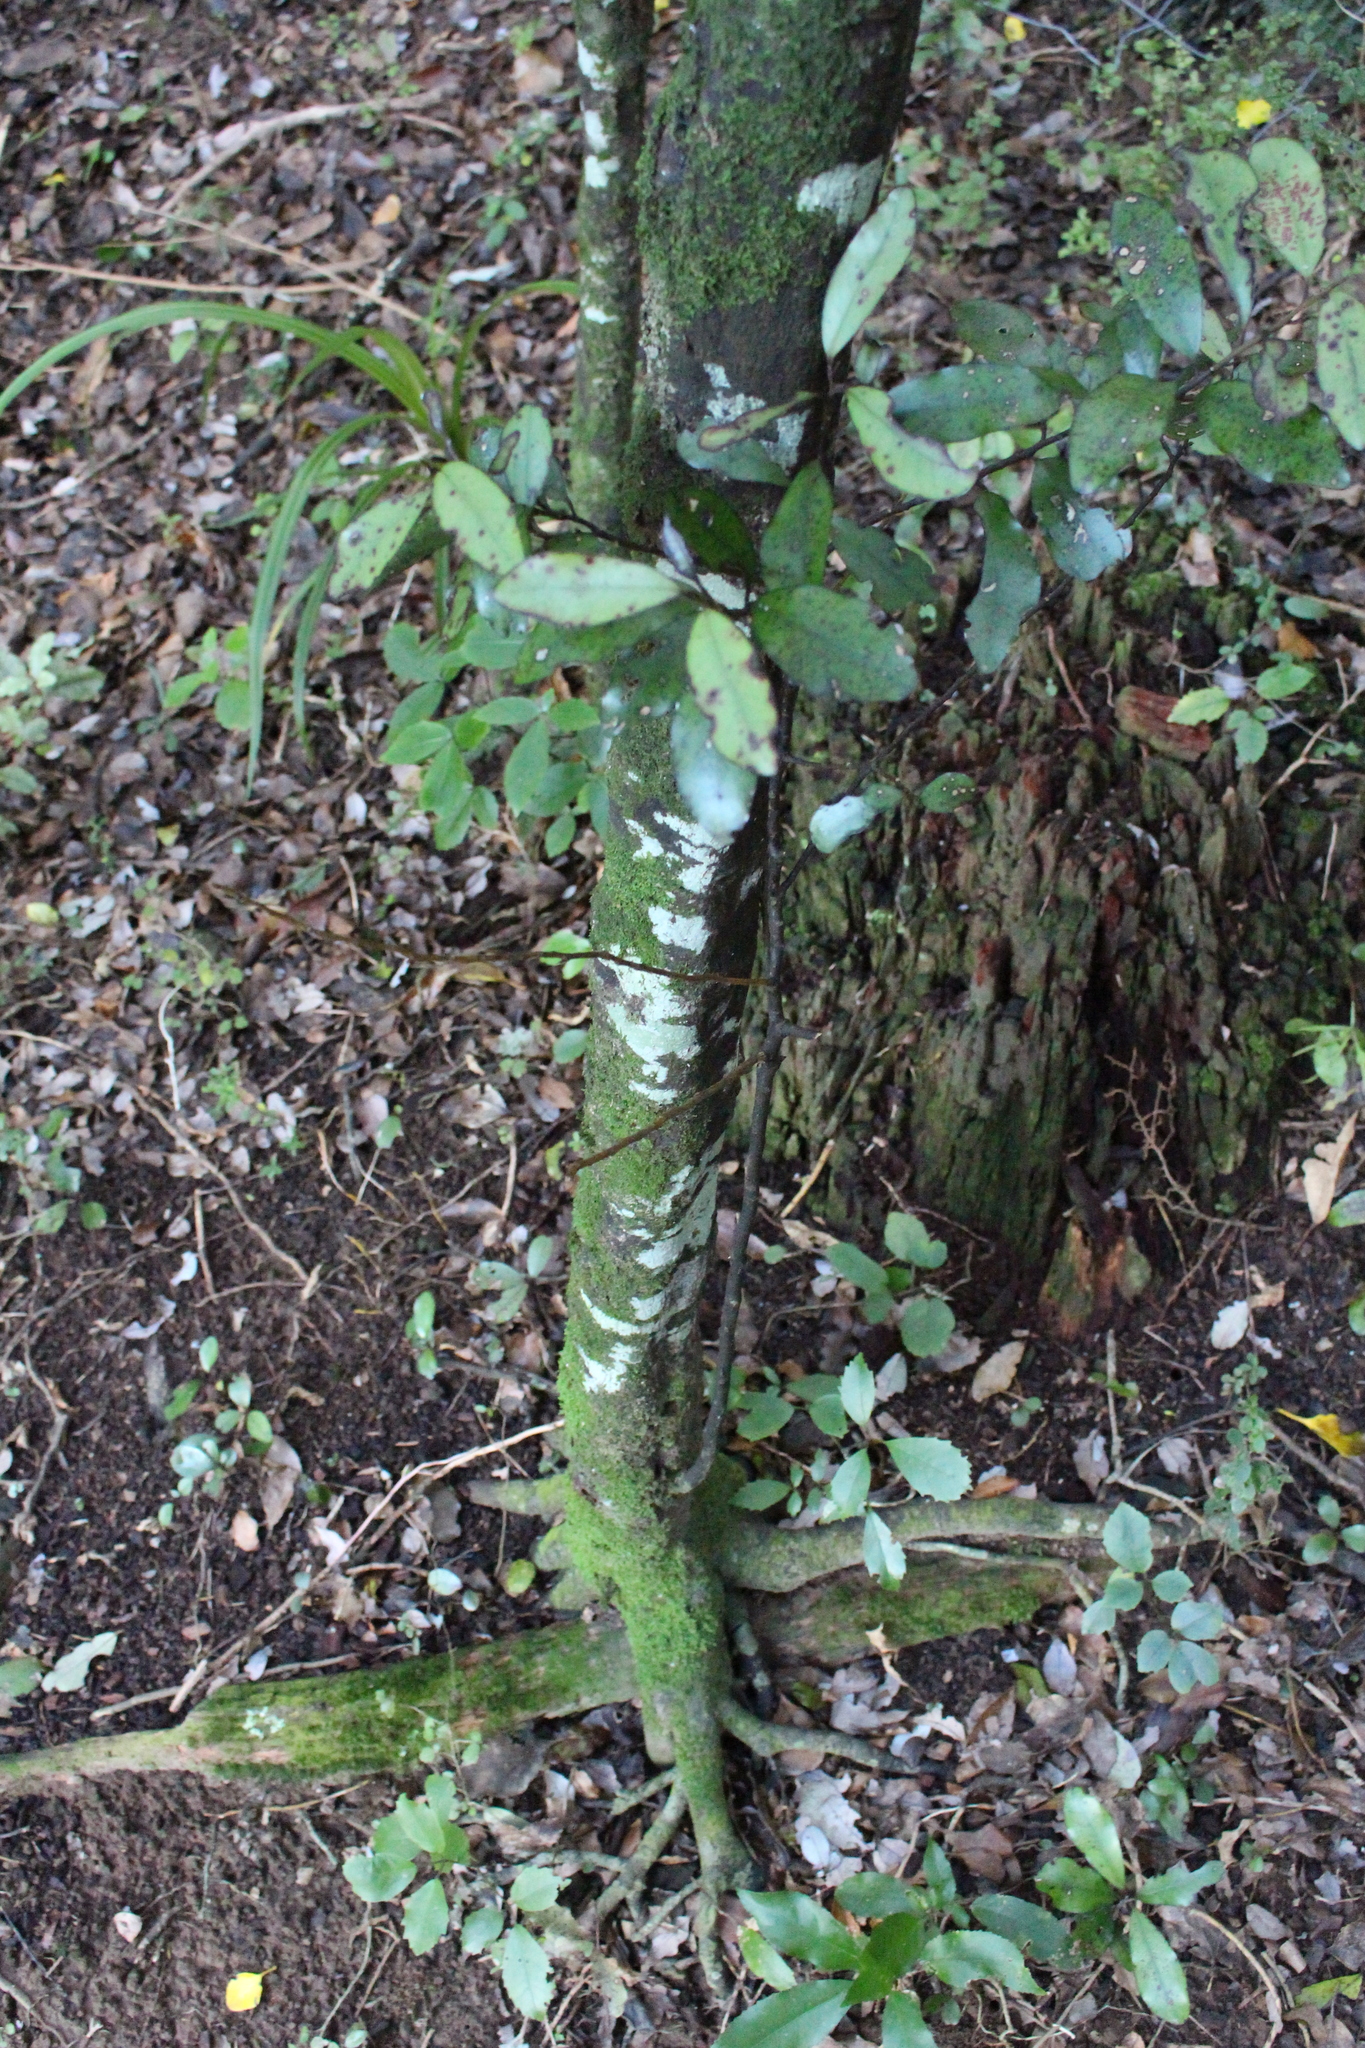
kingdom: Plantae
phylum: Tracheophyta
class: Magnoliopsida
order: Canellales
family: Winteraceae
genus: Pseudowintera
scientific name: Pseudowintera colorata
